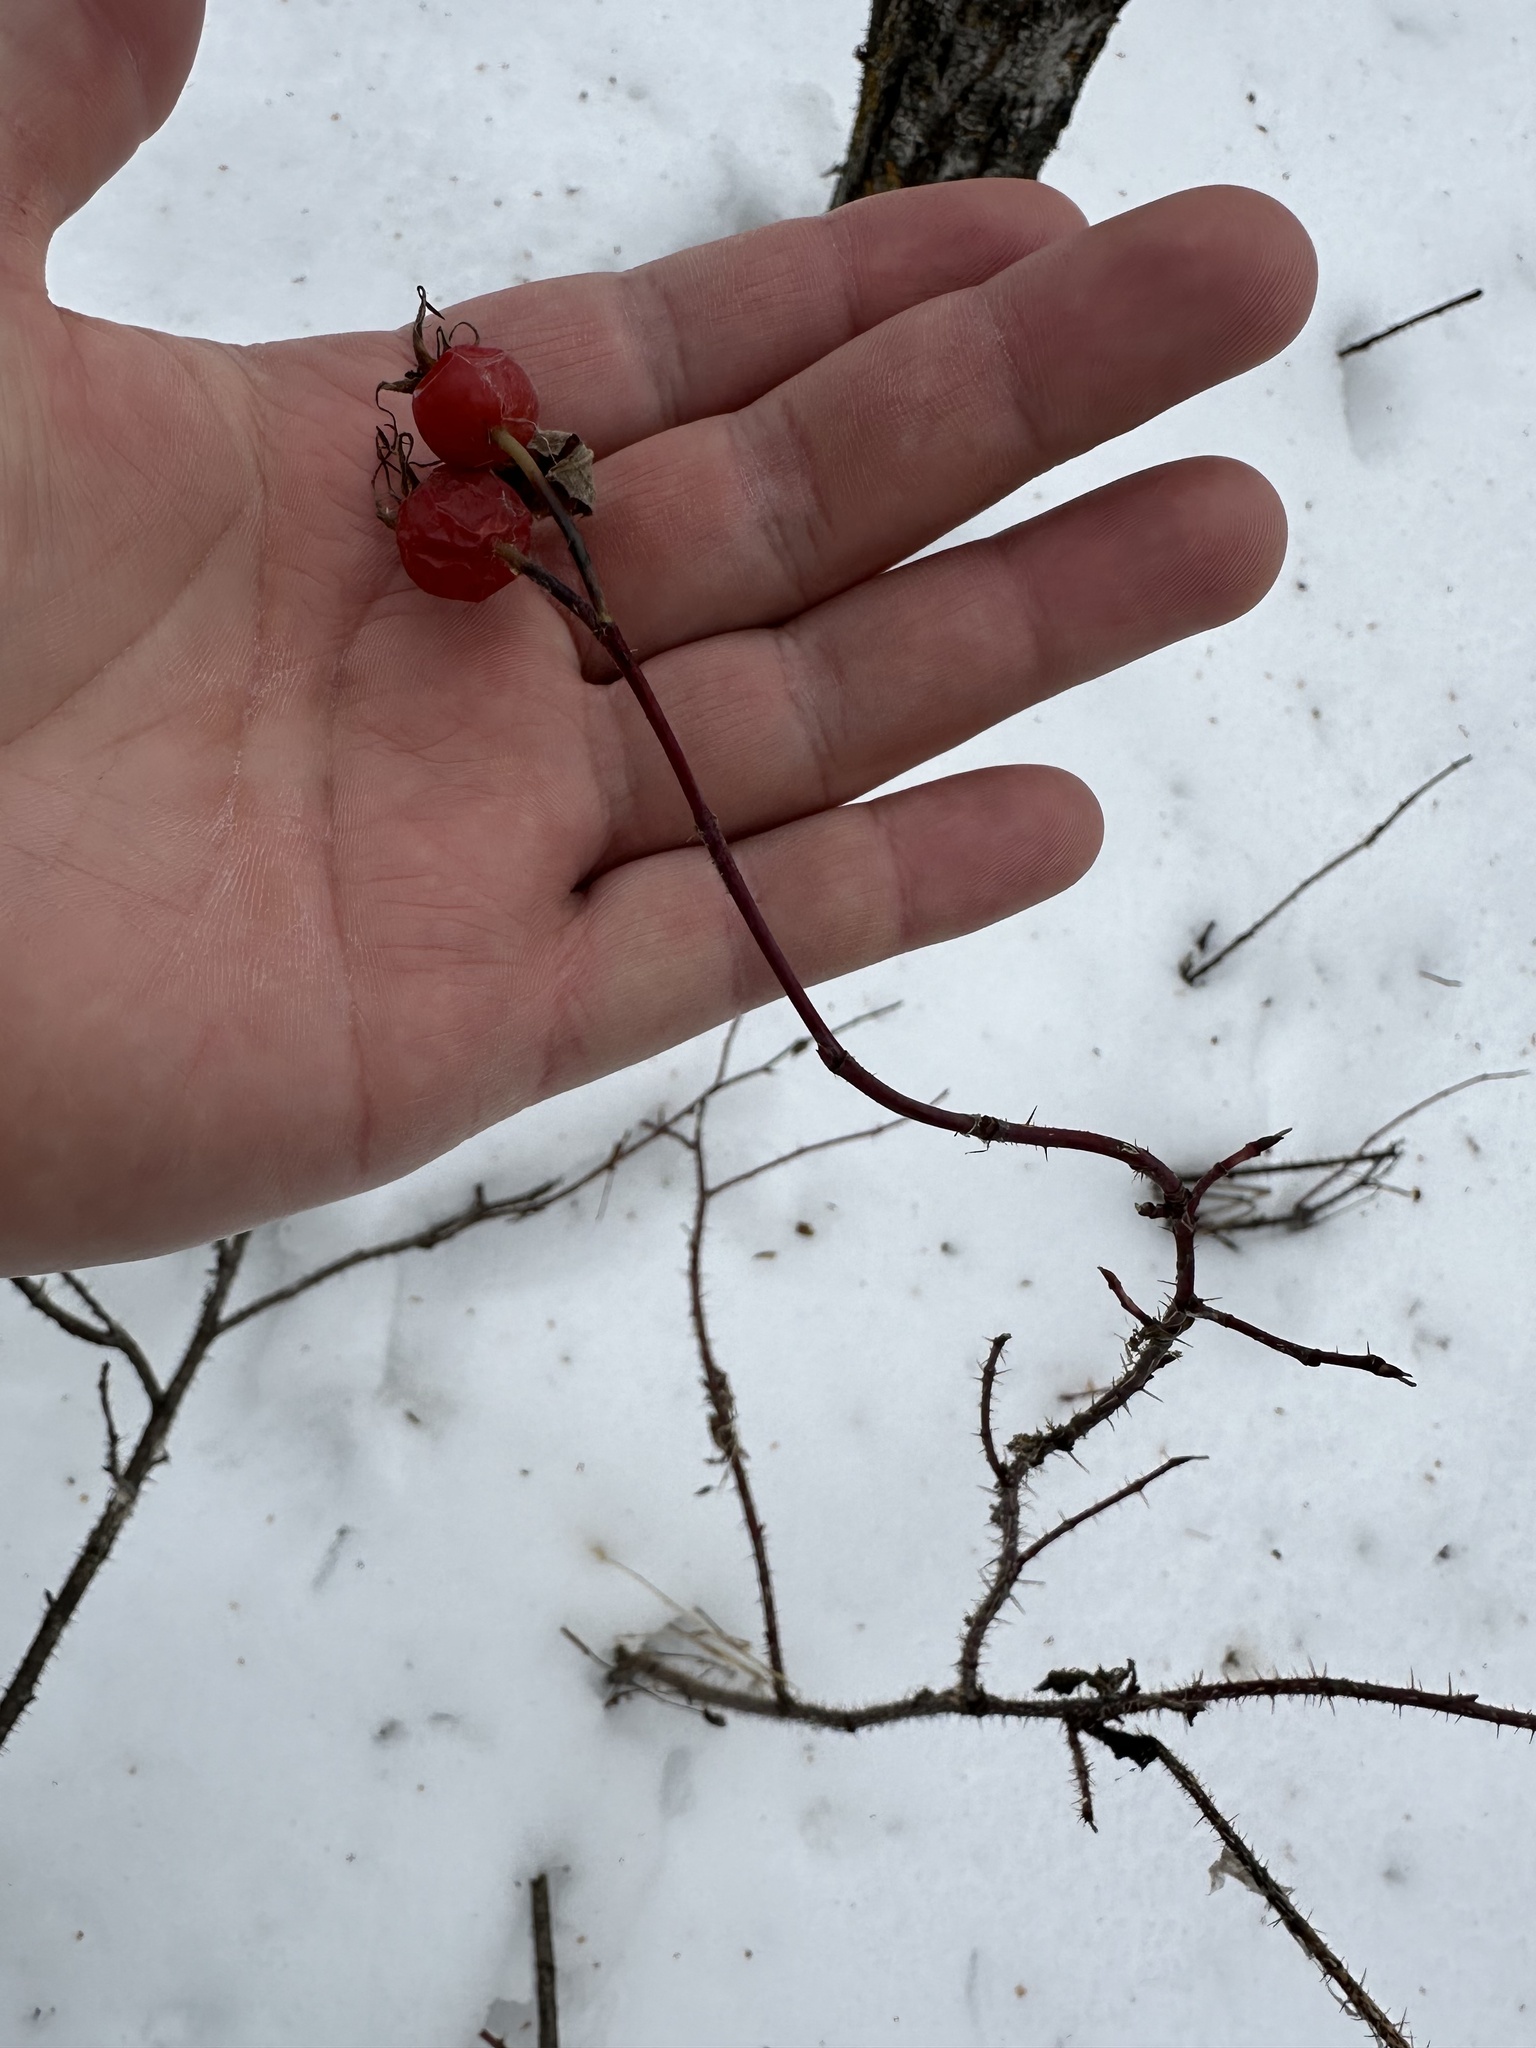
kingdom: Plantae
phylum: Tracheophyta
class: Magnoliopsida
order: Rosales
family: Rosaceae
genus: Rosa
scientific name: Rosa woodsii
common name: Woods's rose
